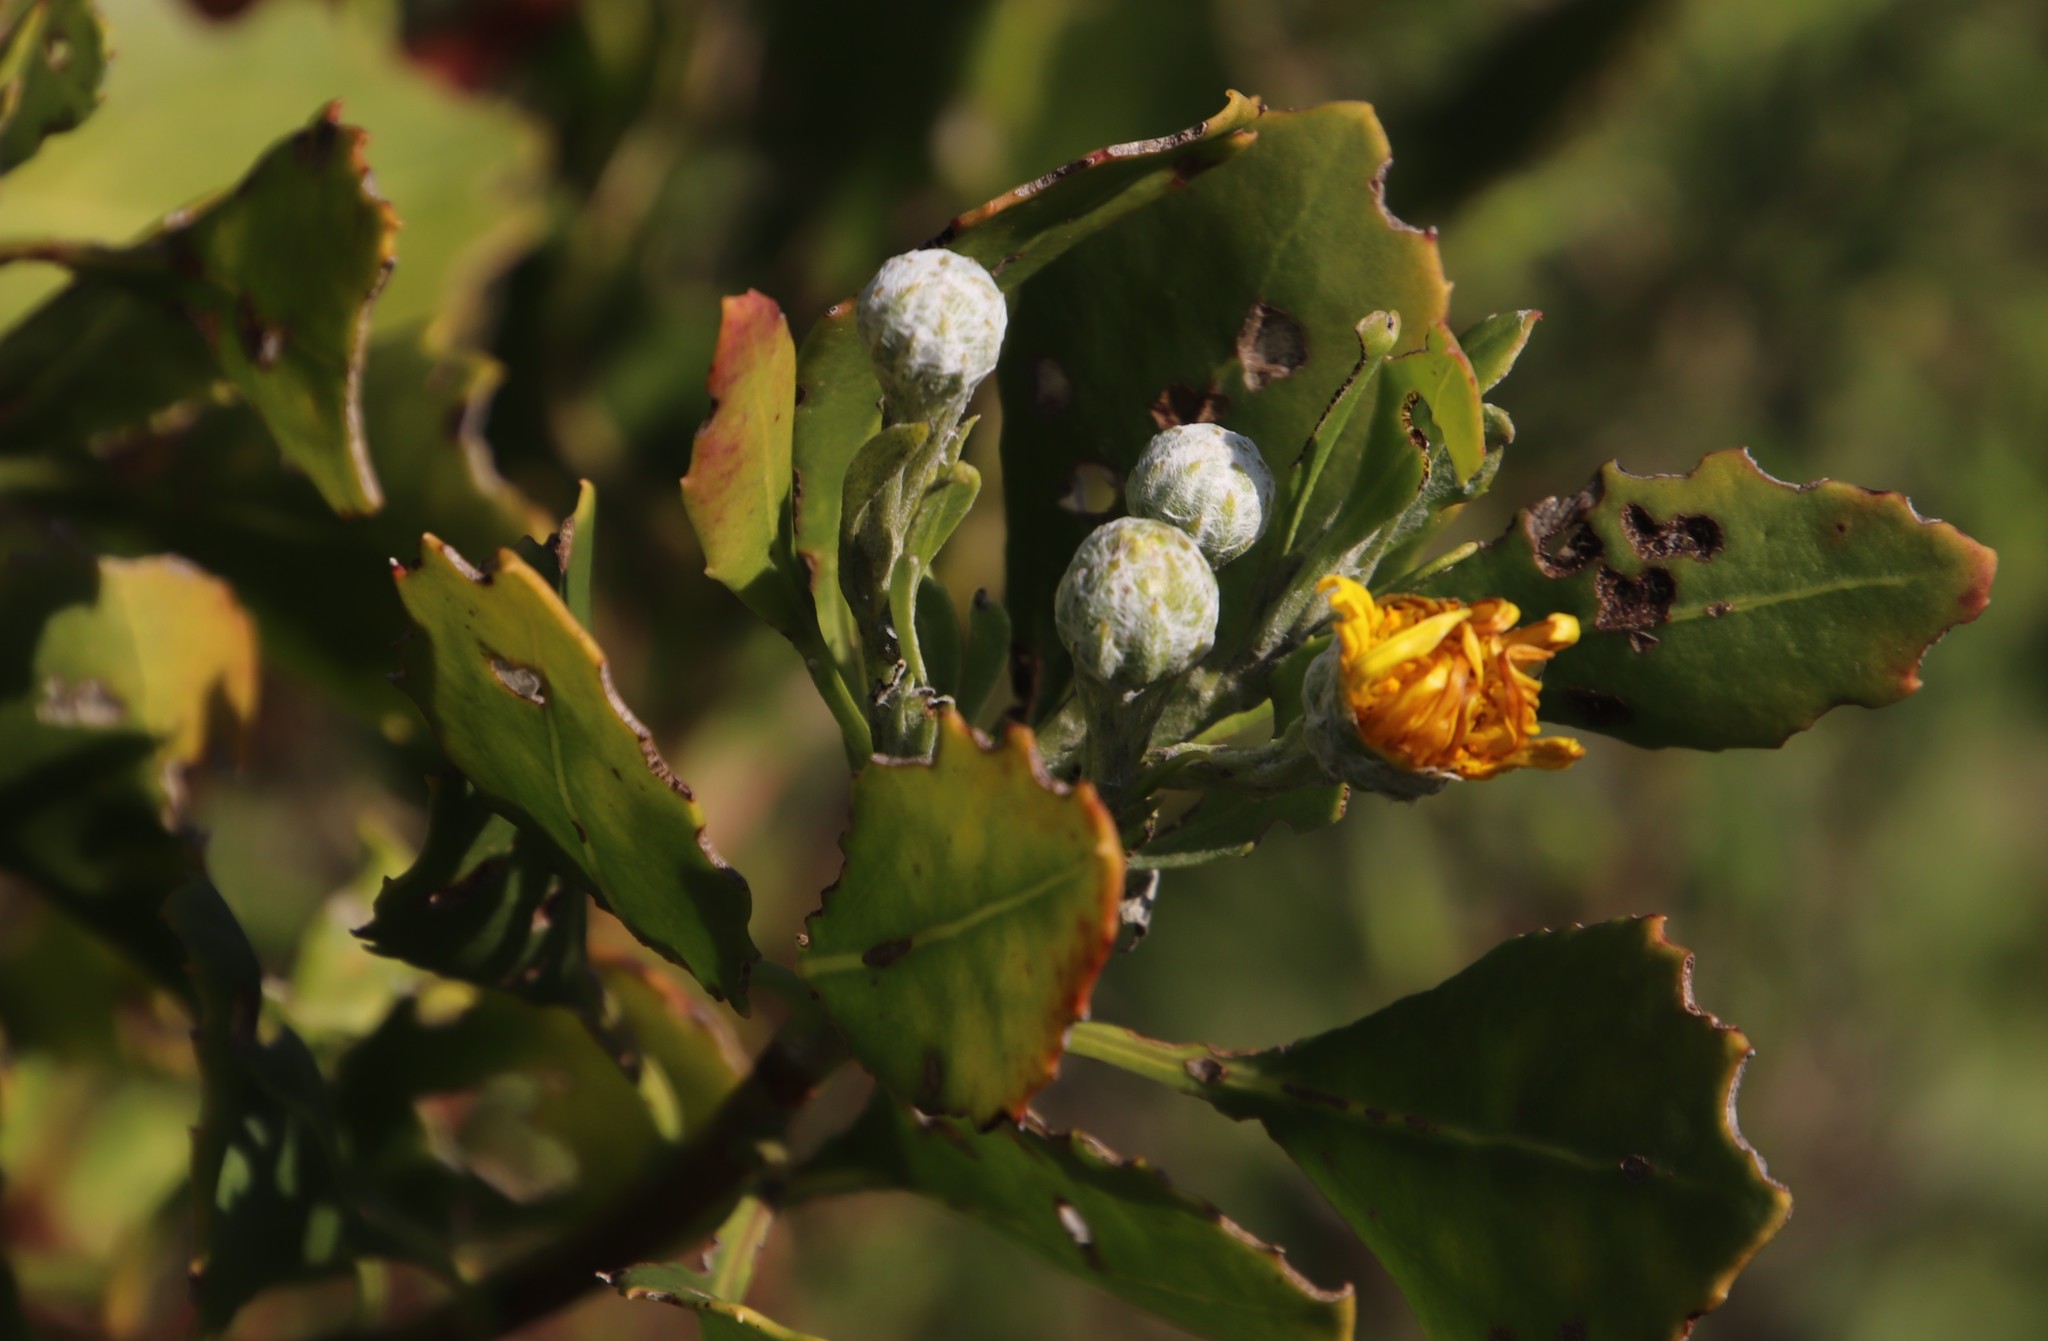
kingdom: Plantae
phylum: Tracheophyta
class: Magnoliopsida
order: Asterales
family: Asteraceae
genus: Osteospermum
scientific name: Osteospermum moniliferum
